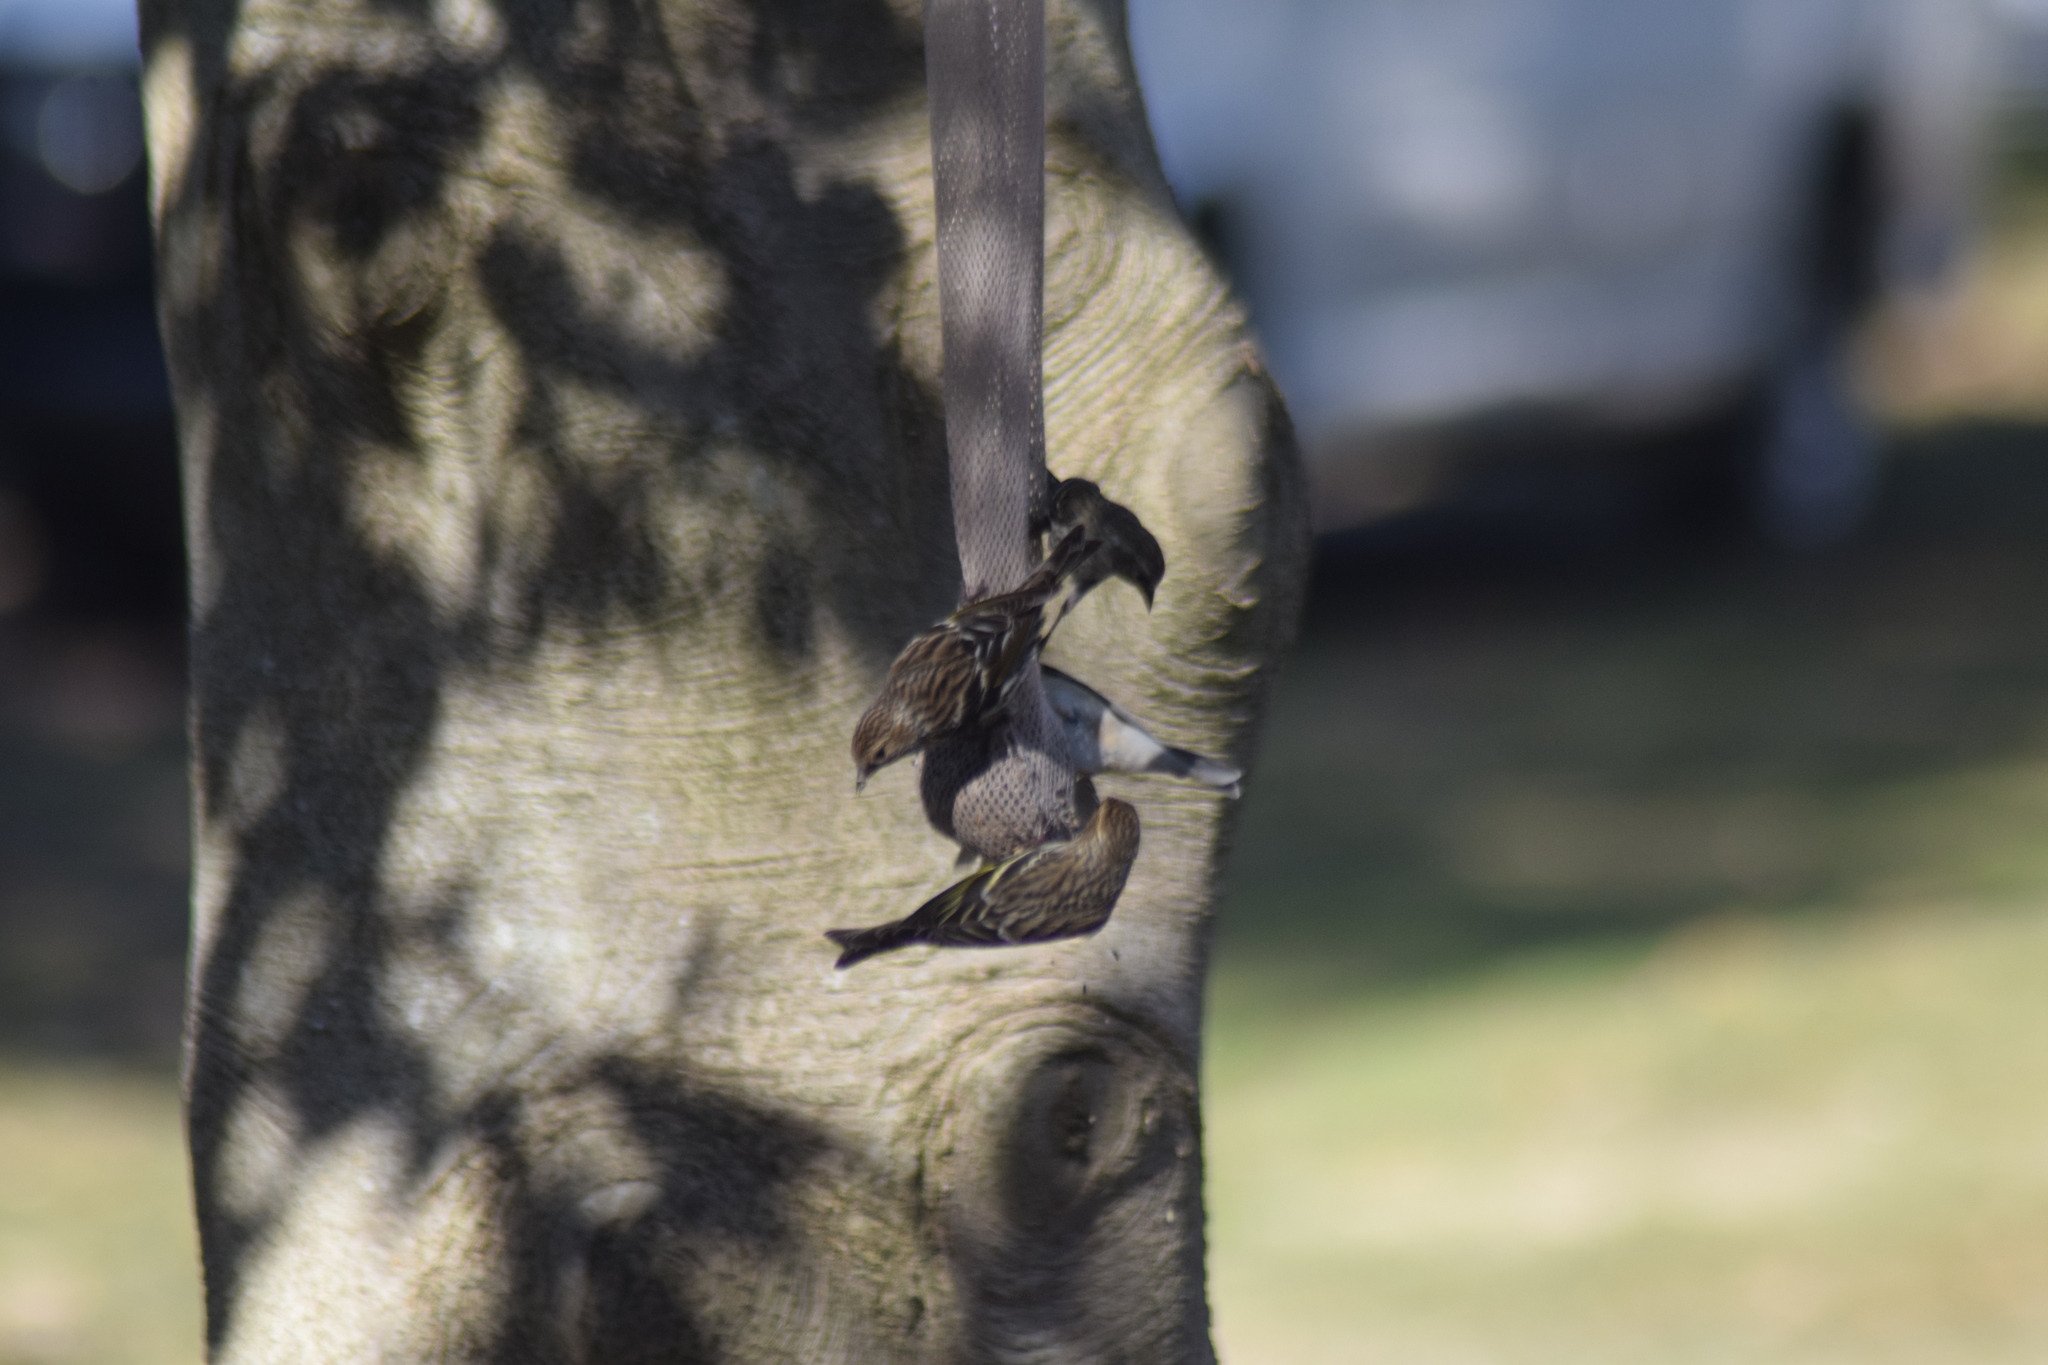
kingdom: Animalia
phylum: Chordata
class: Aves
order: Passeriformes
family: Fringillidae
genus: Spinus
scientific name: Spinus pinus
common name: Pine siskin
